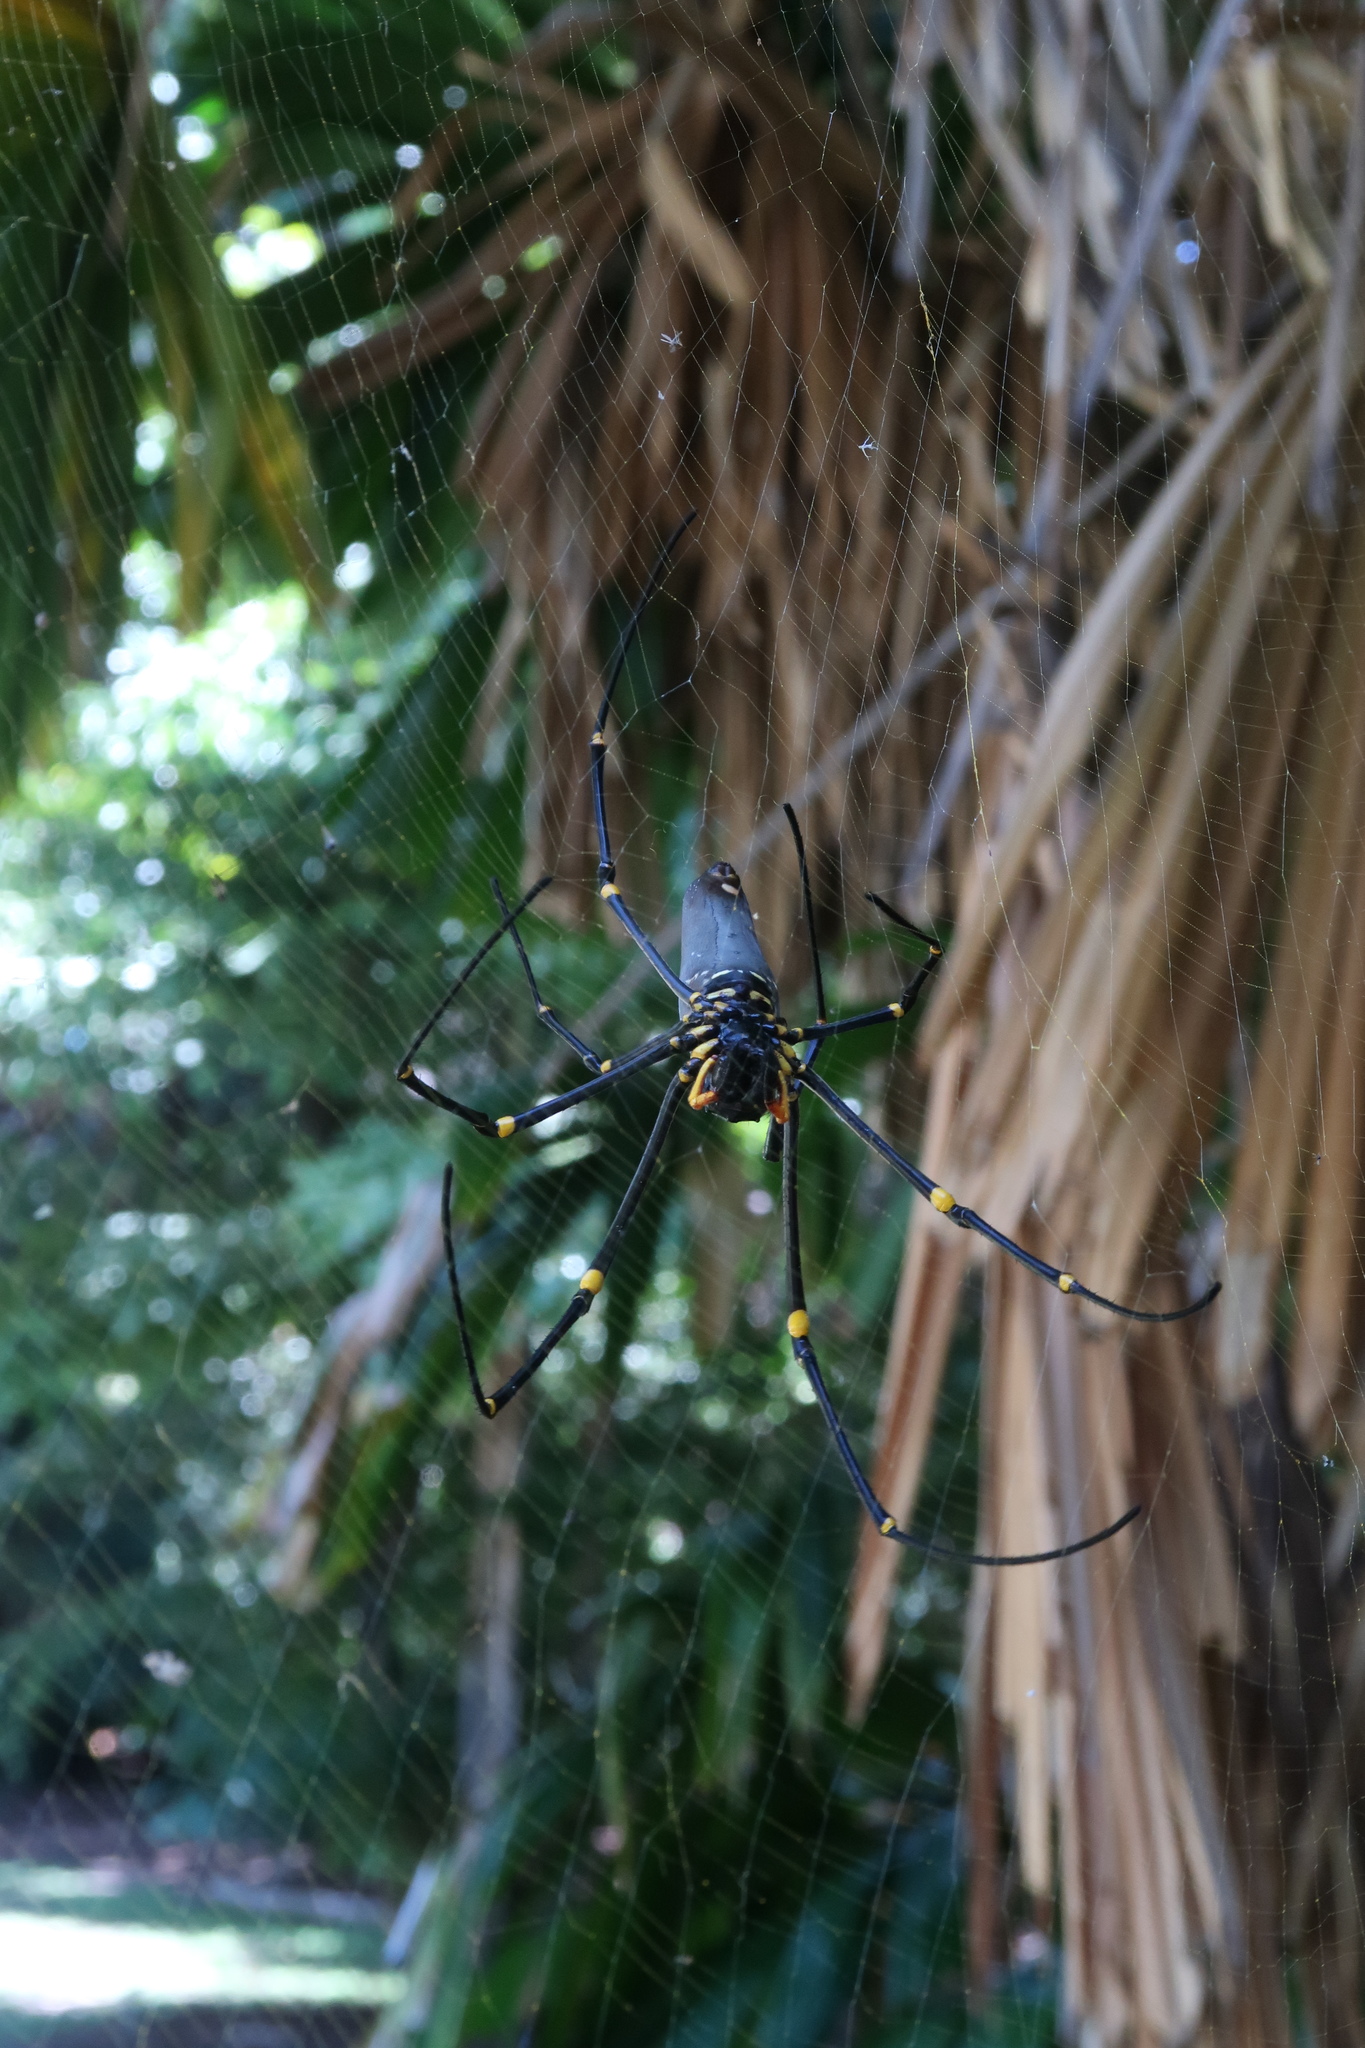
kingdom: Animalia
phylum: Arthropoda
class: Arachnida
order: Araneae
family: Araneidae
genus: Nephila
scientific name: Nephila pilipes
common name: Giant golden orb weaver
